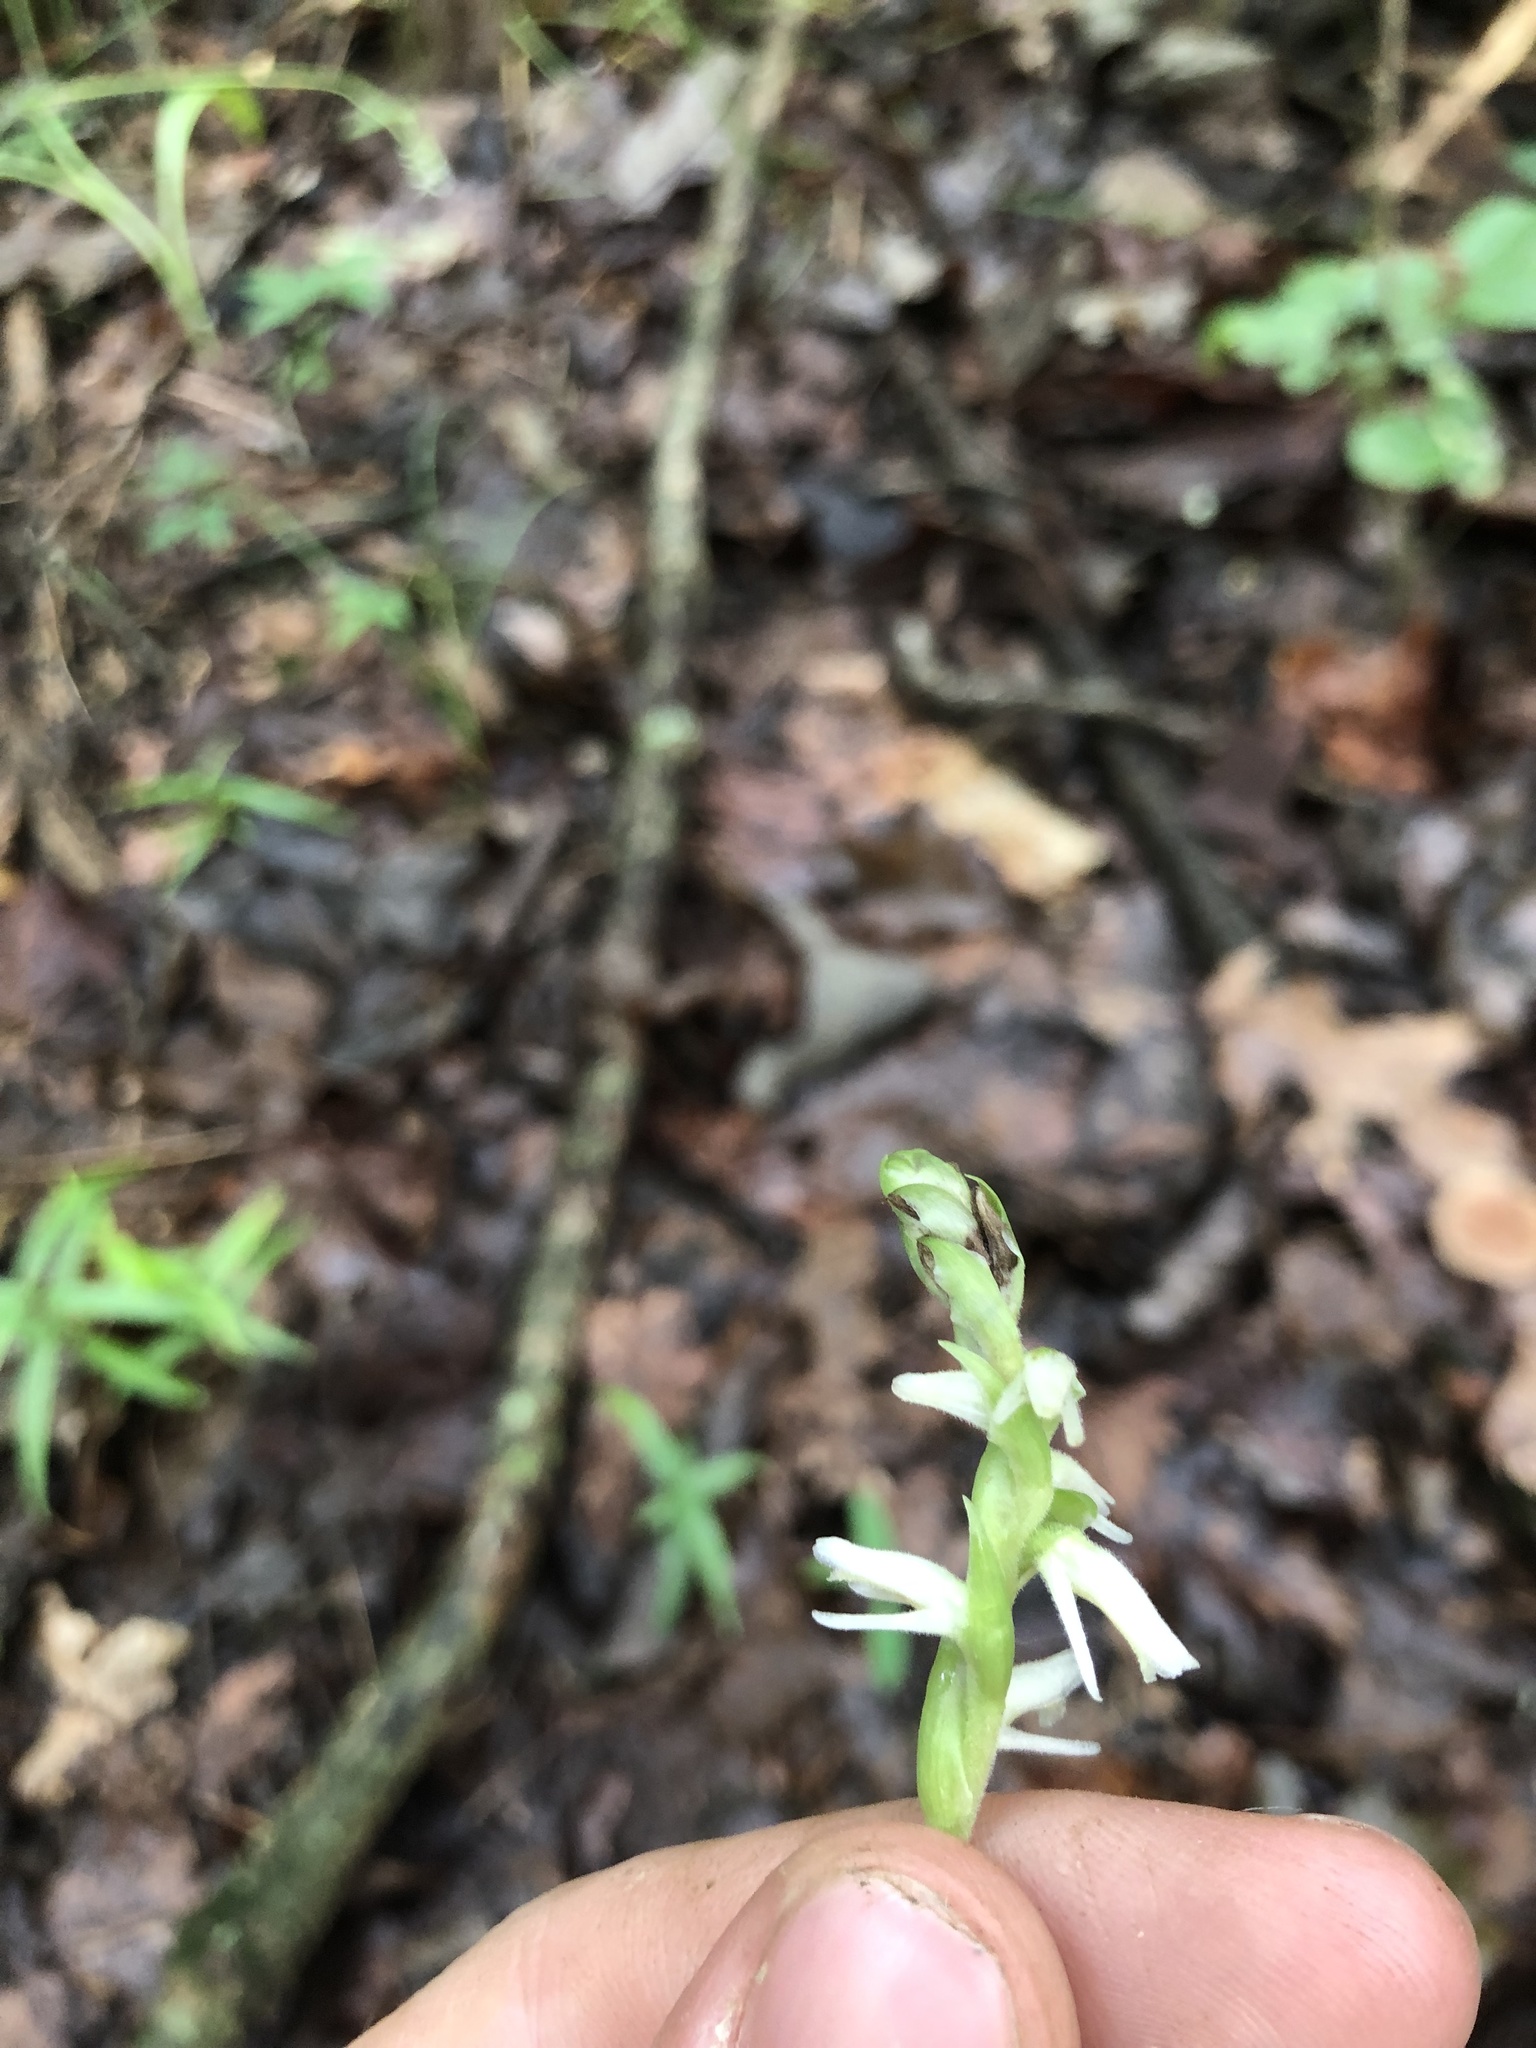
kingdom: Plantae
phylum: Tracheophyta
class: Liliopsida
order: Asparagales
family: Orchidaceae
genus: Spiranthes
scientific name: Spiranthes vernalis
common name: Spring ladies'-tresses
